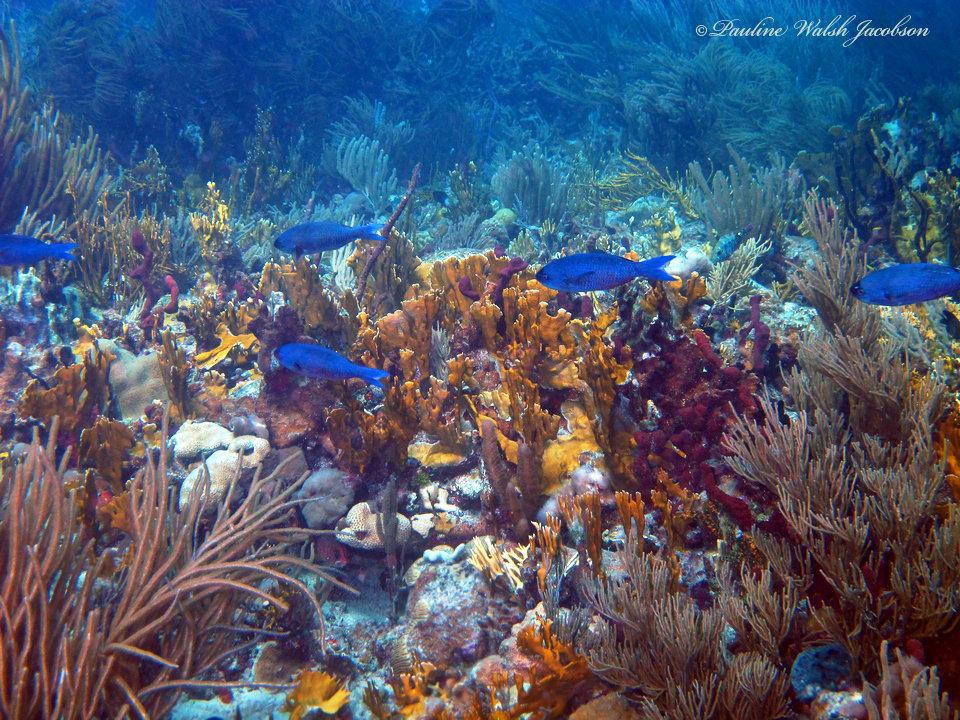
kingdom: Animalia
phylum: Chordata
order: Perciformes
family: Labridae
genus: Bodianus
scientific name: Bodianus
